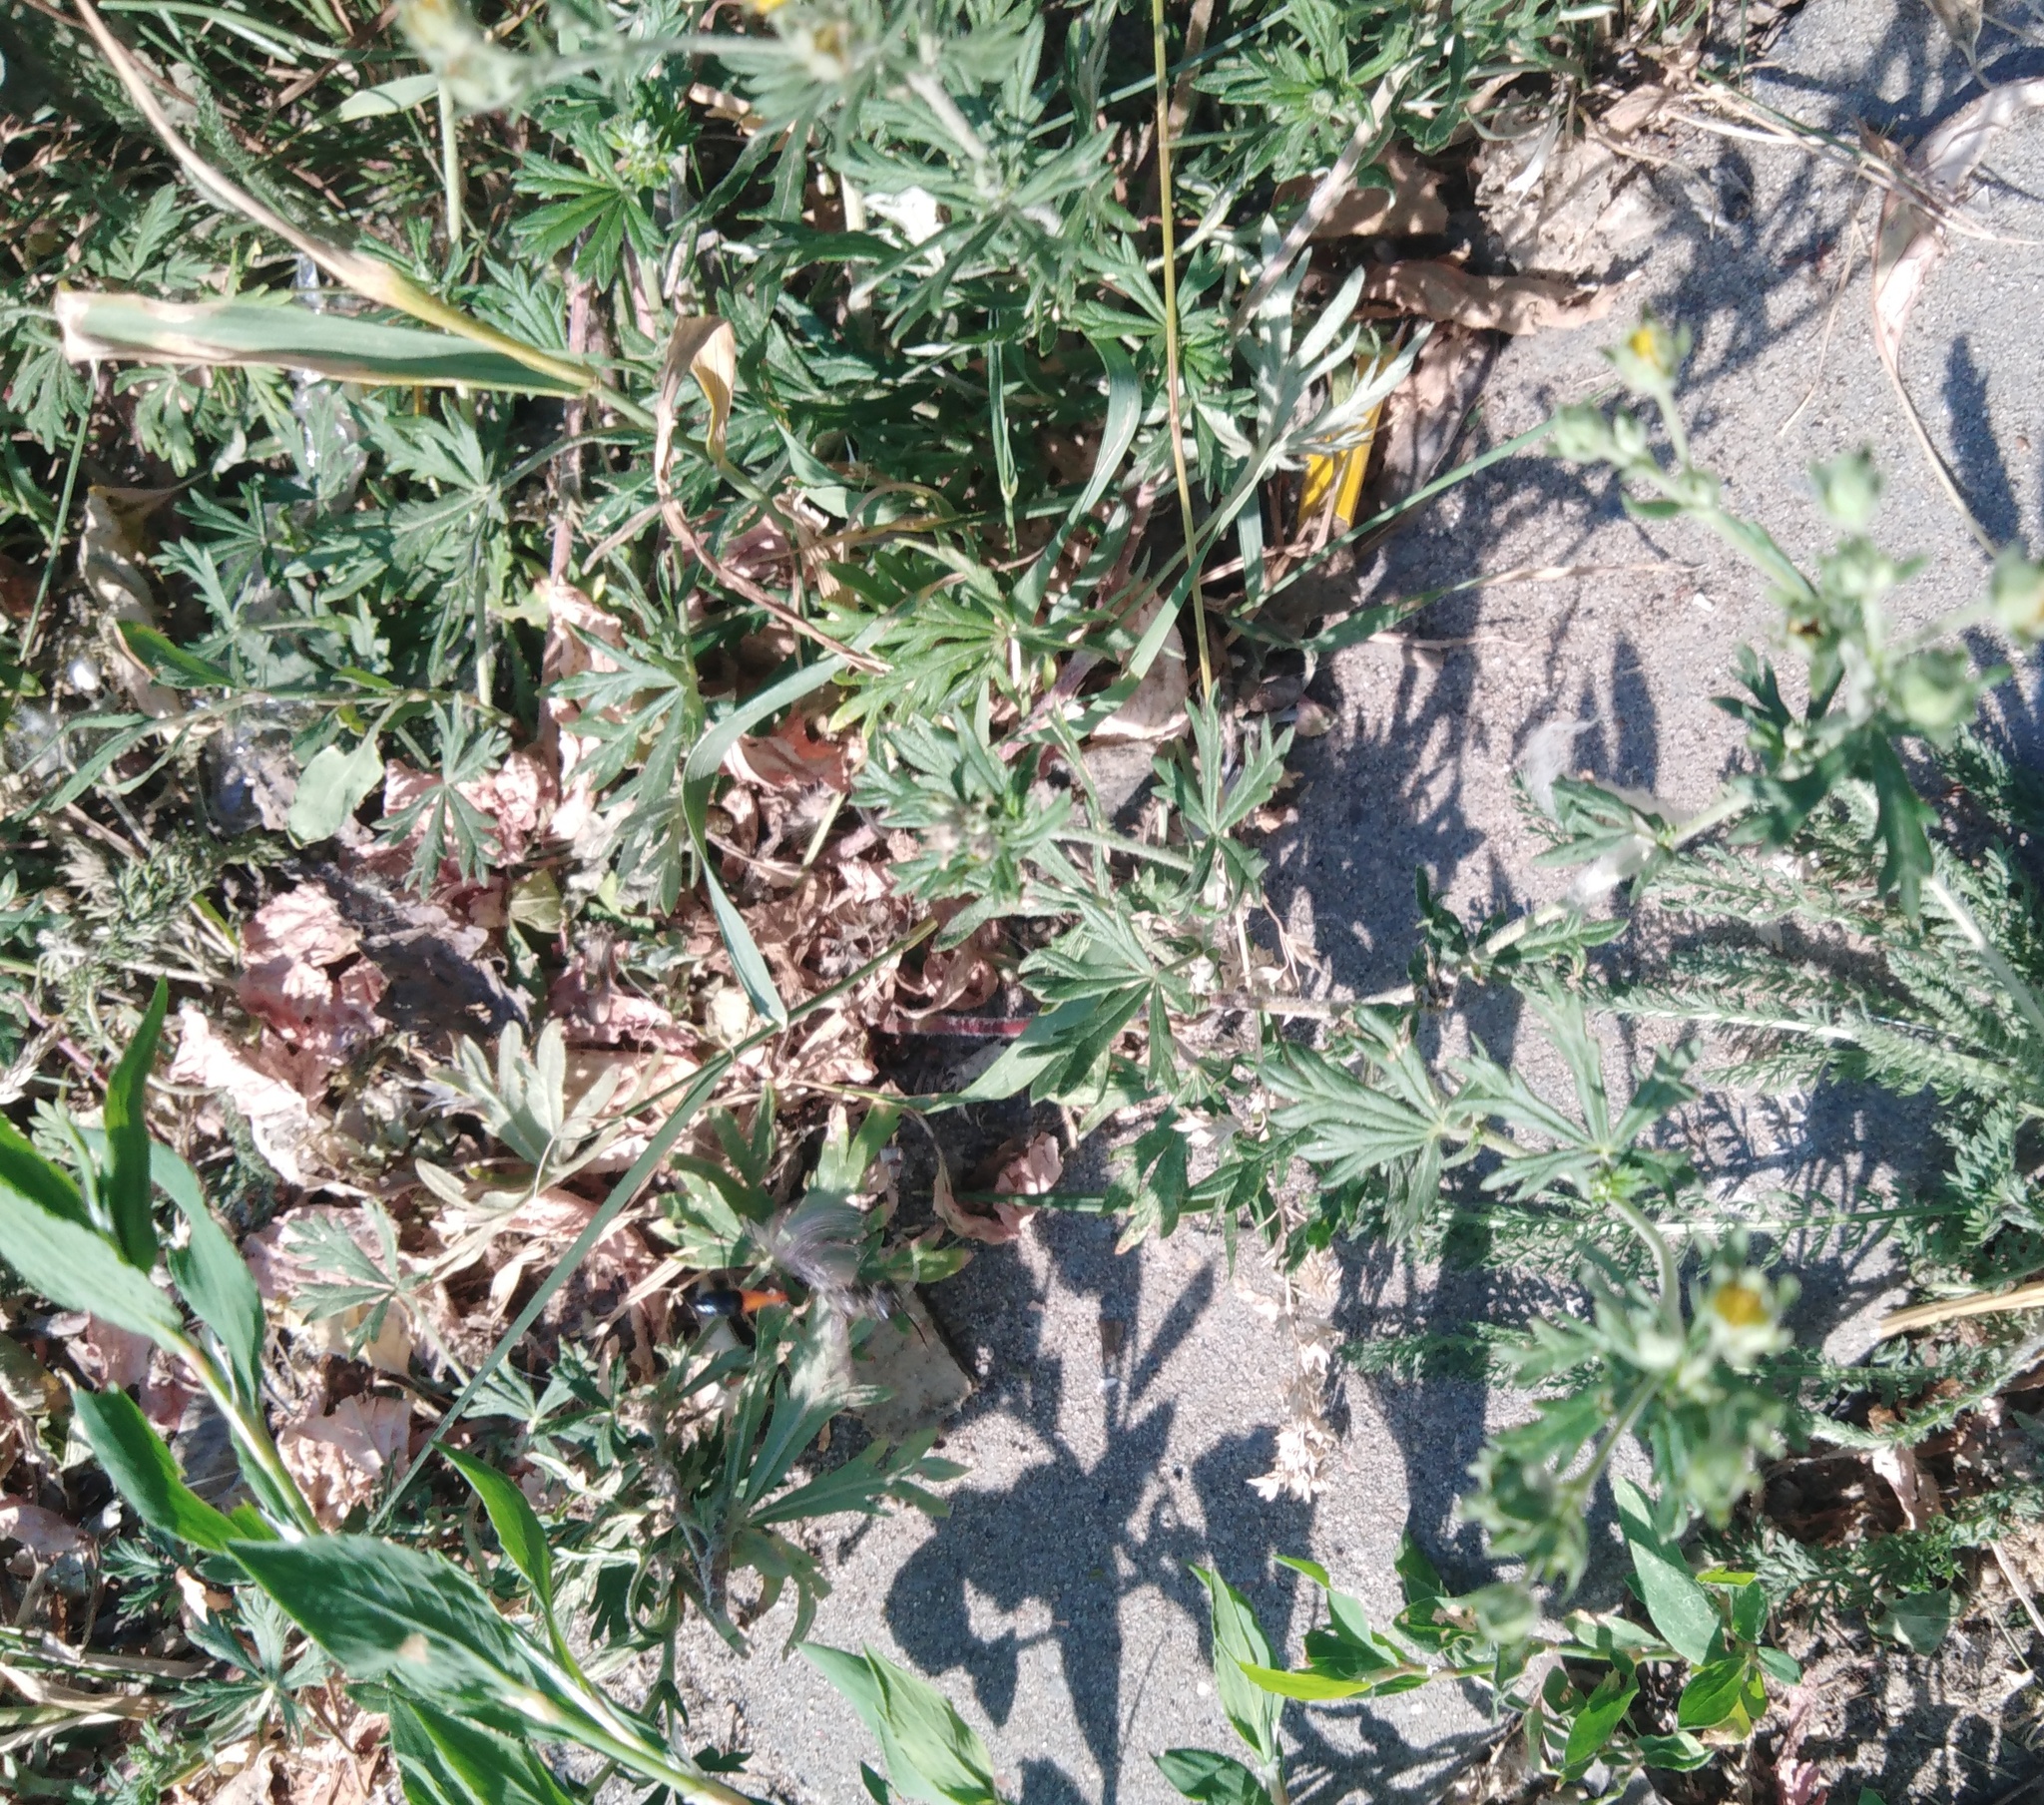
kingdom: Plantae
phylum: Tracheophyta
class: Magnoliopsida
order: Rosales
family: Rosaceae
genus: Potentilla
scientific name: Potentilla argentea
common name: Hoary cinquefoil
